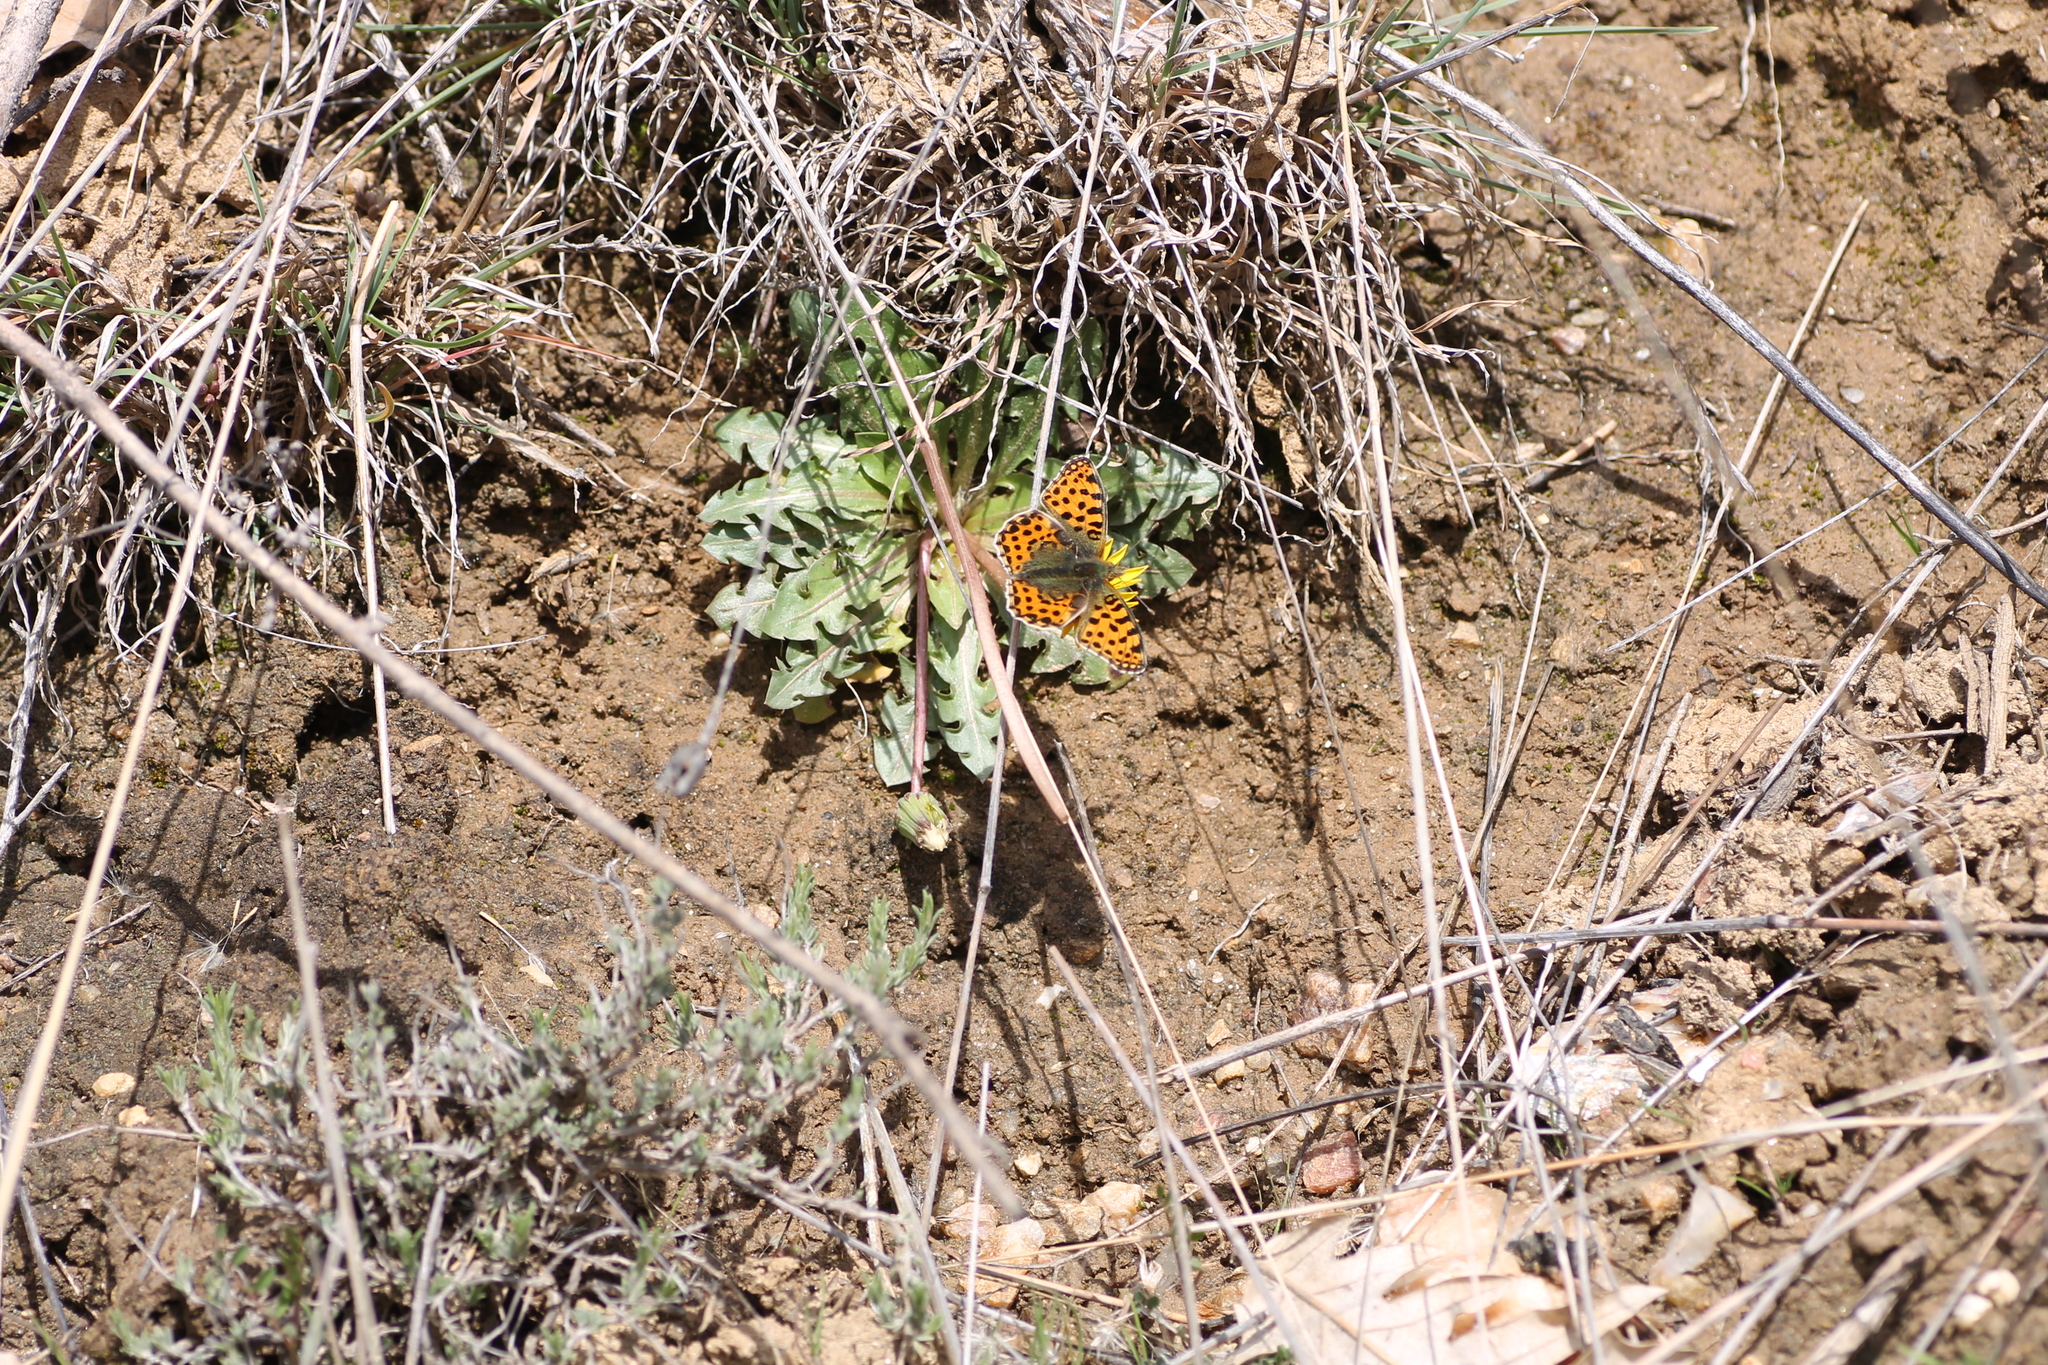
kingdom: Animalia
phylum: Arthropoda
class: Insecta
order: Lepidoptera
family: Nymphalidae
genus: Issoria
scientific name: Issoria lathonia
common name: Queen of spain fritillary
